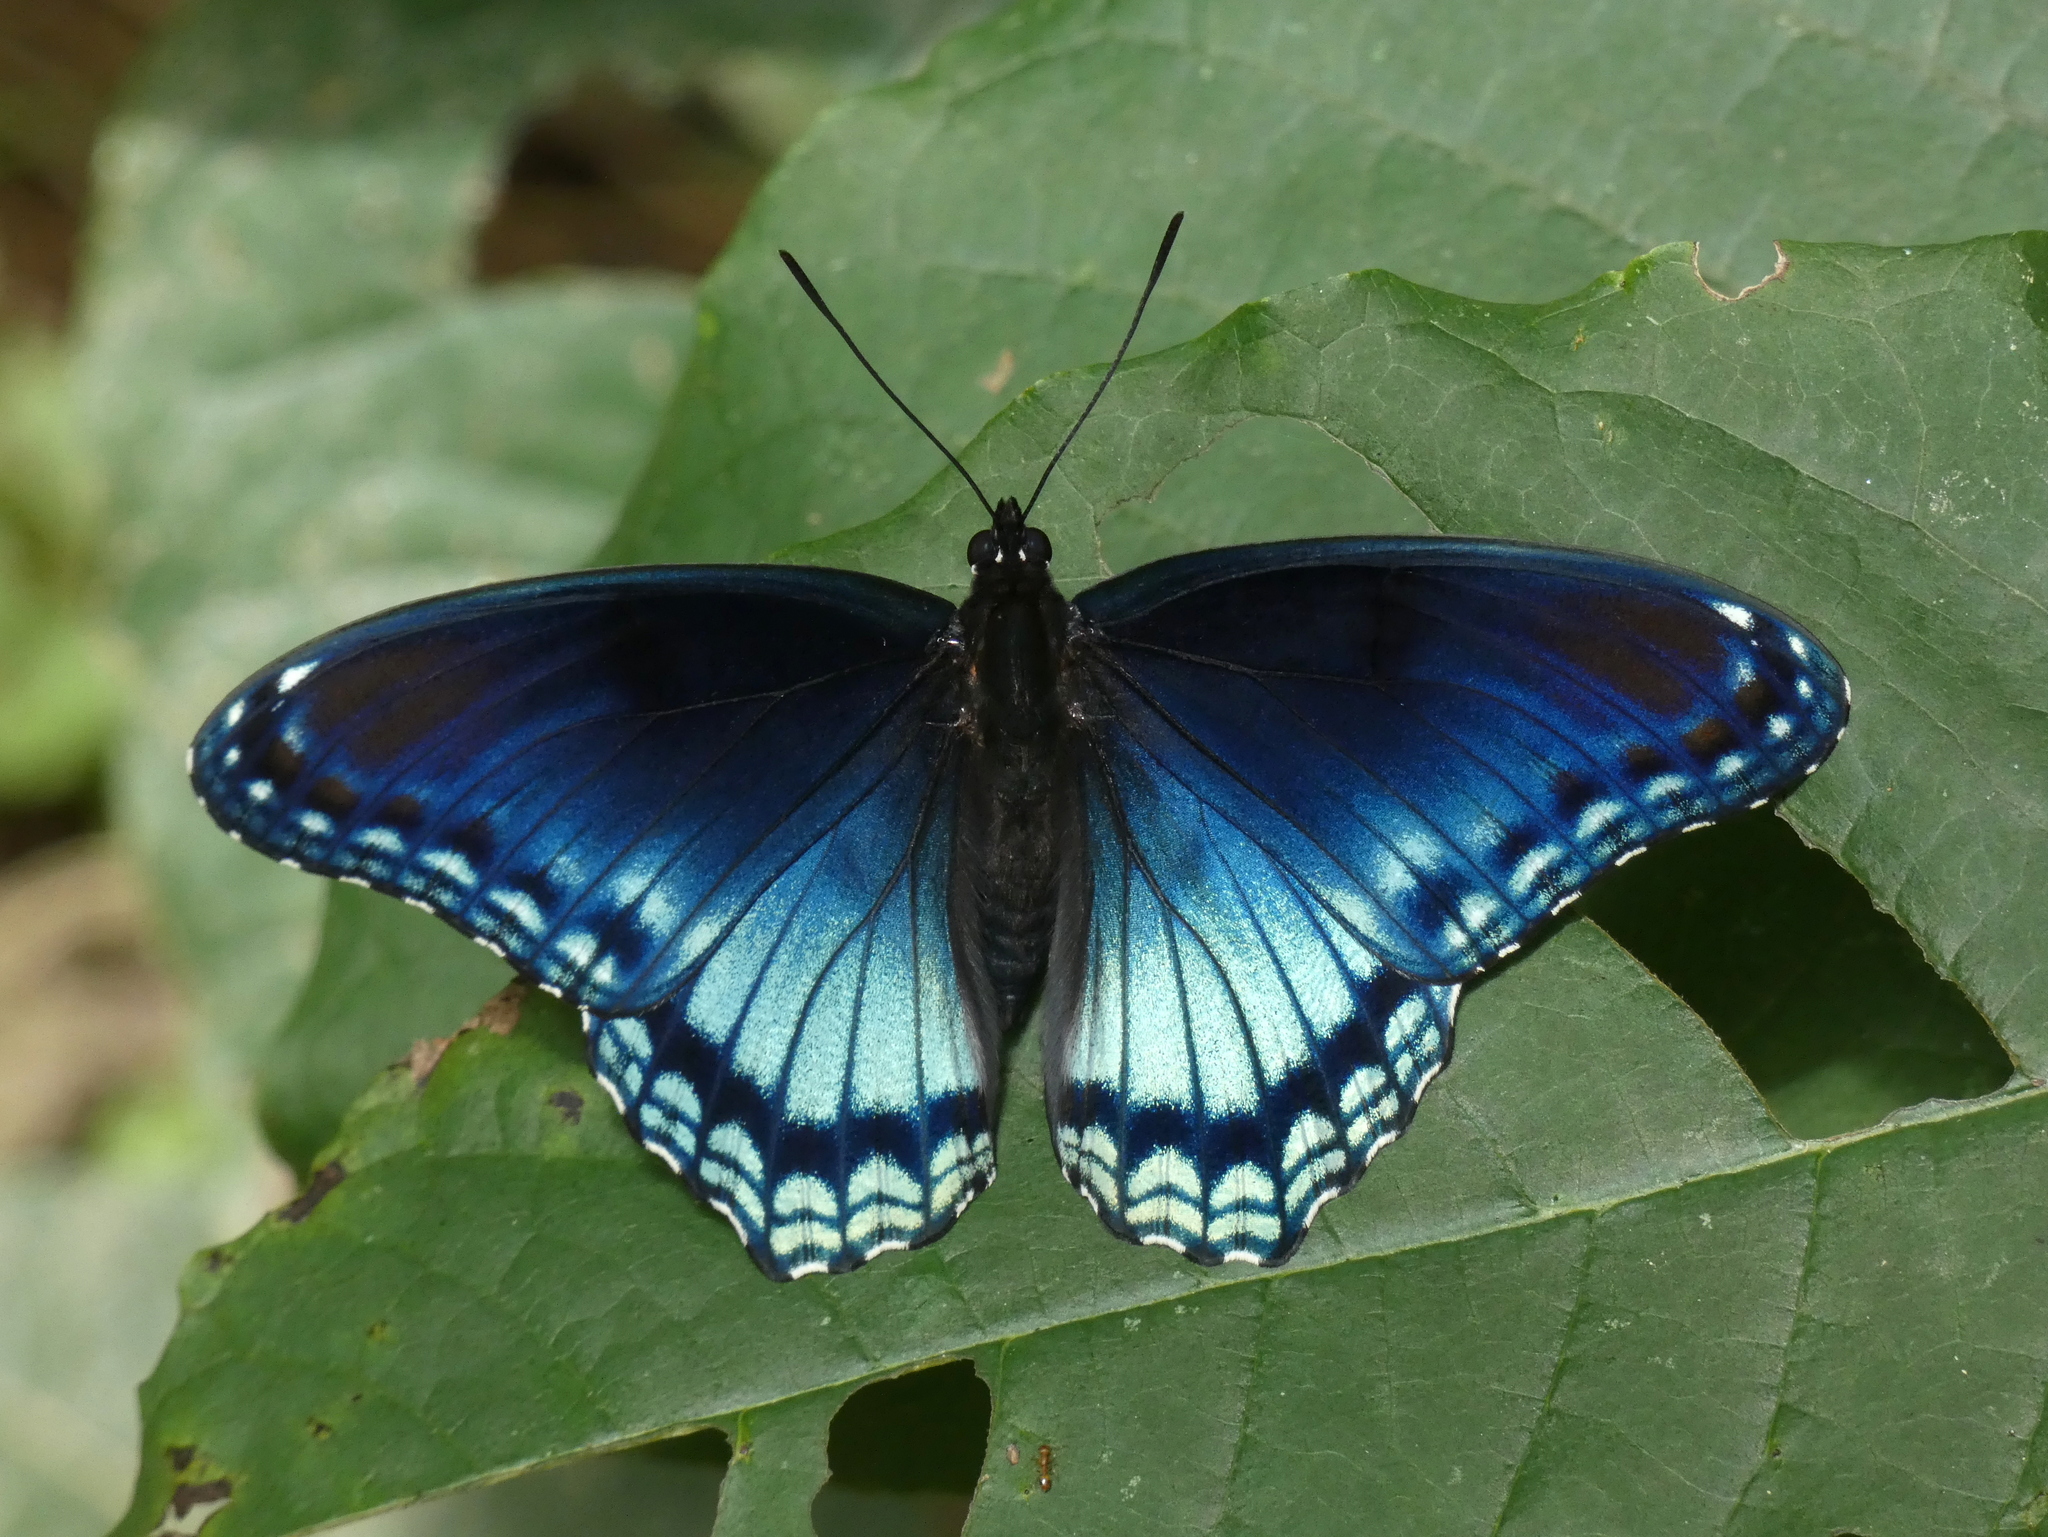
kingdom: Animalia
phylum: Arthropoda
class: Insecta
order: Lepidoptera
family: Nymphalidae
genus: Limenitis
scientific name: Limenitis astyanax
